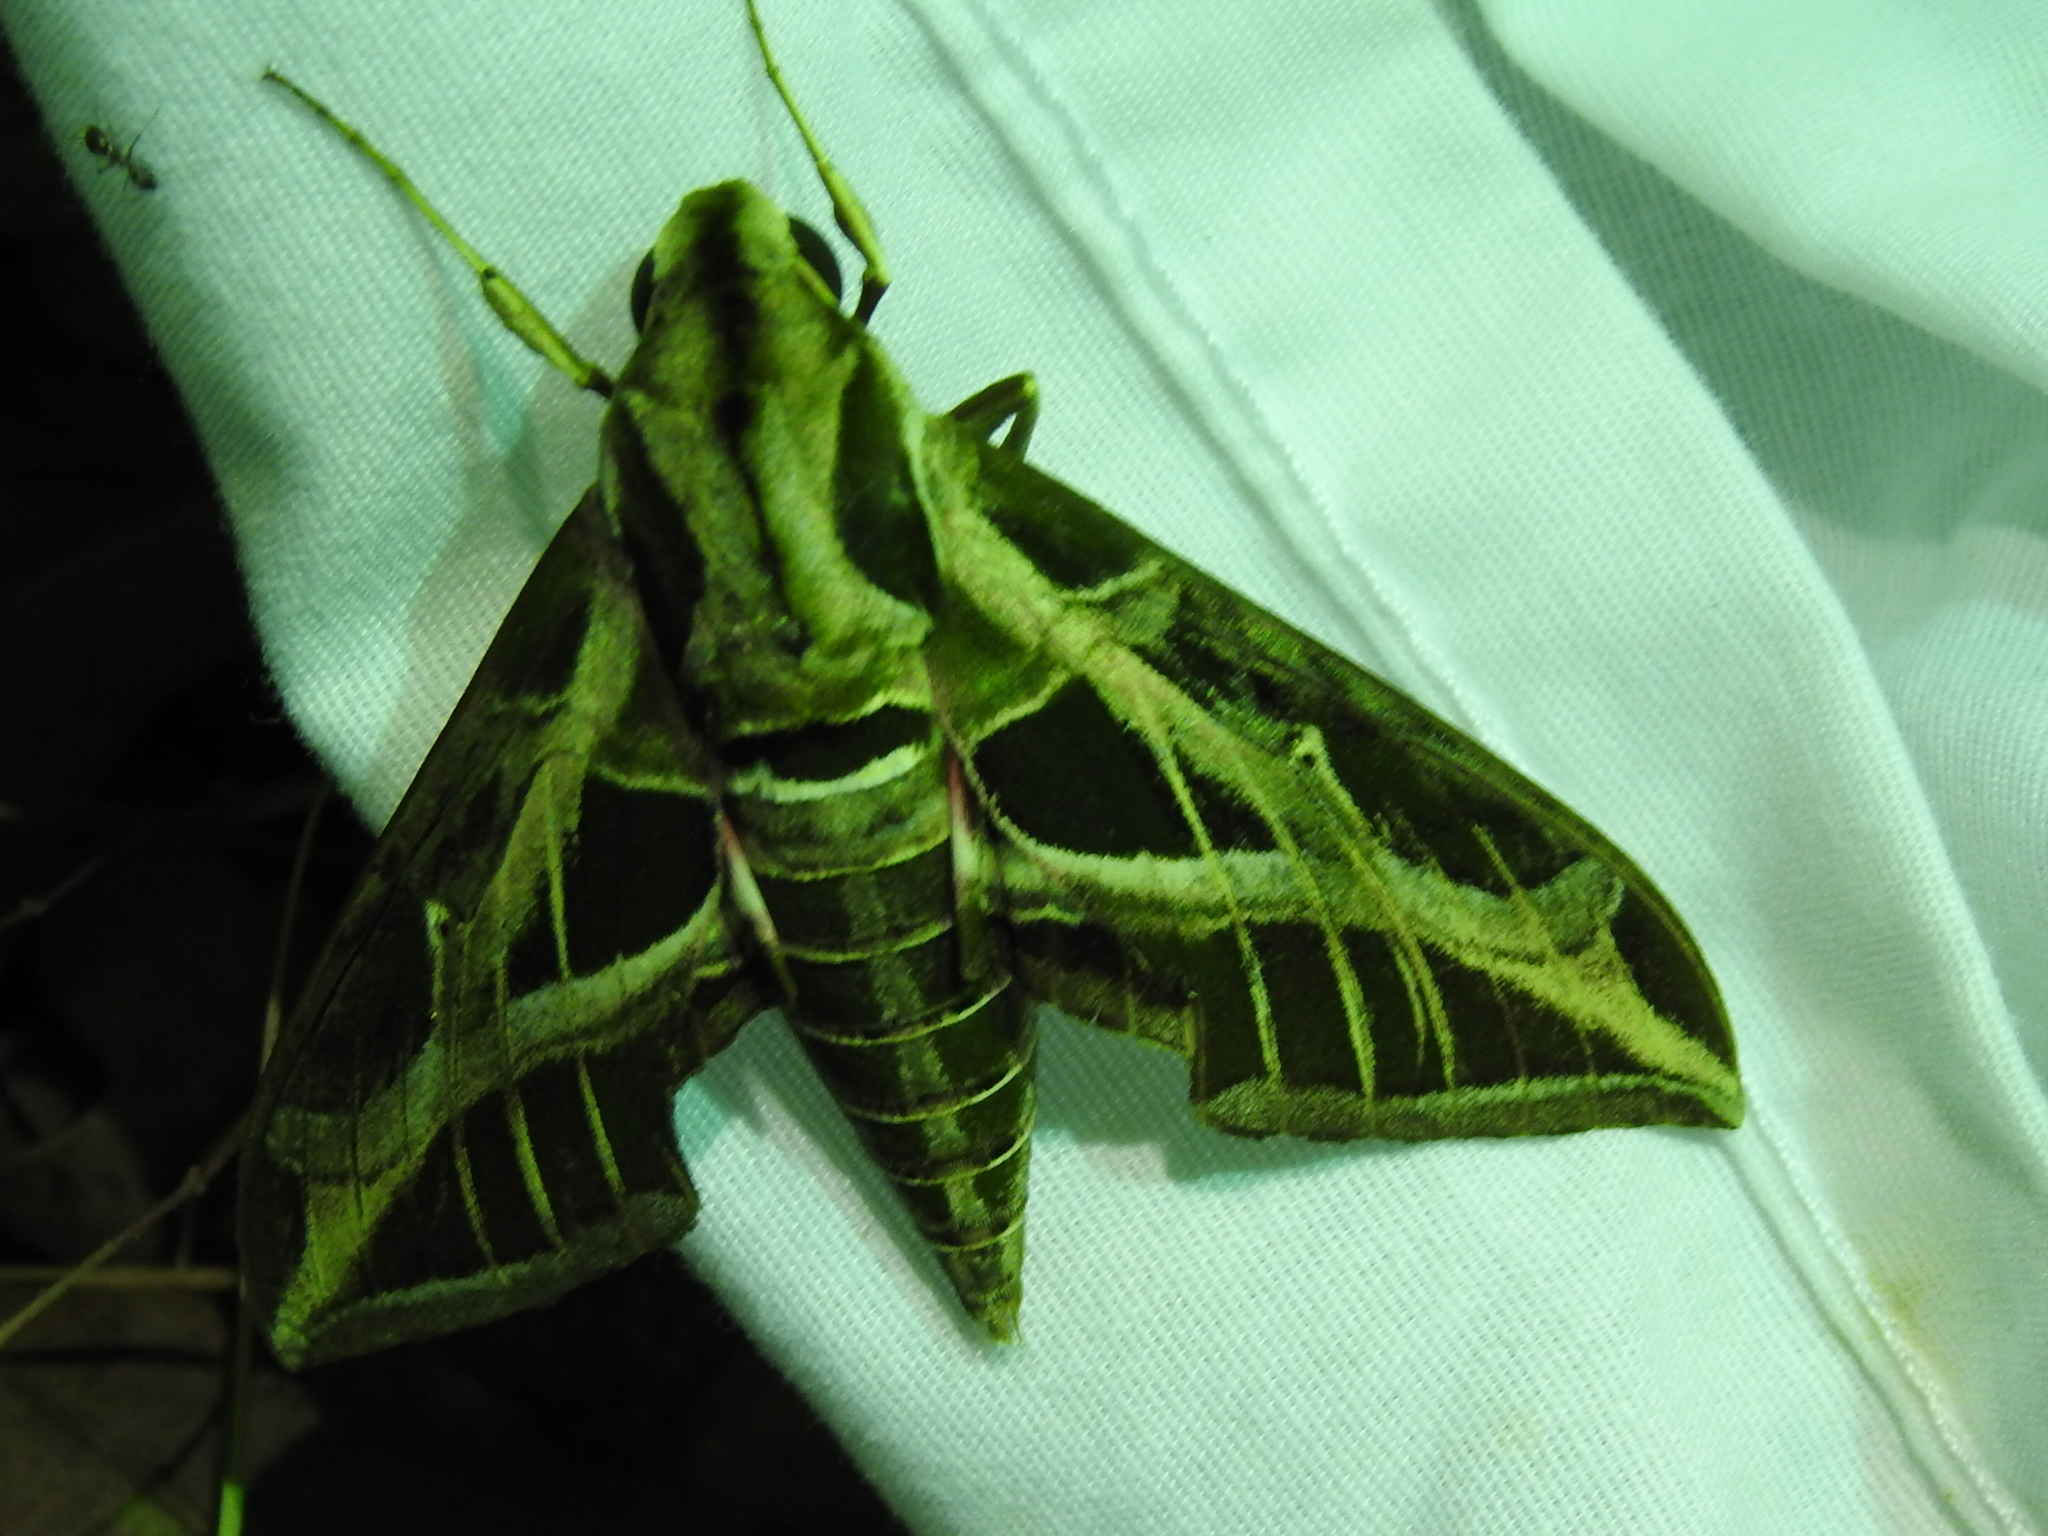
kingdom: Animalia
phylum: Arthropoda
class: Insecta
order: Lepidoptera
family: Sphingidae
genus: Eumorpha
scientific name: Eumorpha vitis
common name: Vine sphinx
